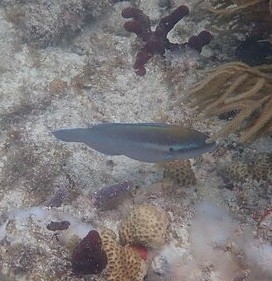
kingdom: Animalia
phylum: Chordata
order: Perciformes
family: Scaridae
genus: Scarus
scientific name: Scarus iseri
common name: Striped parrotfish
